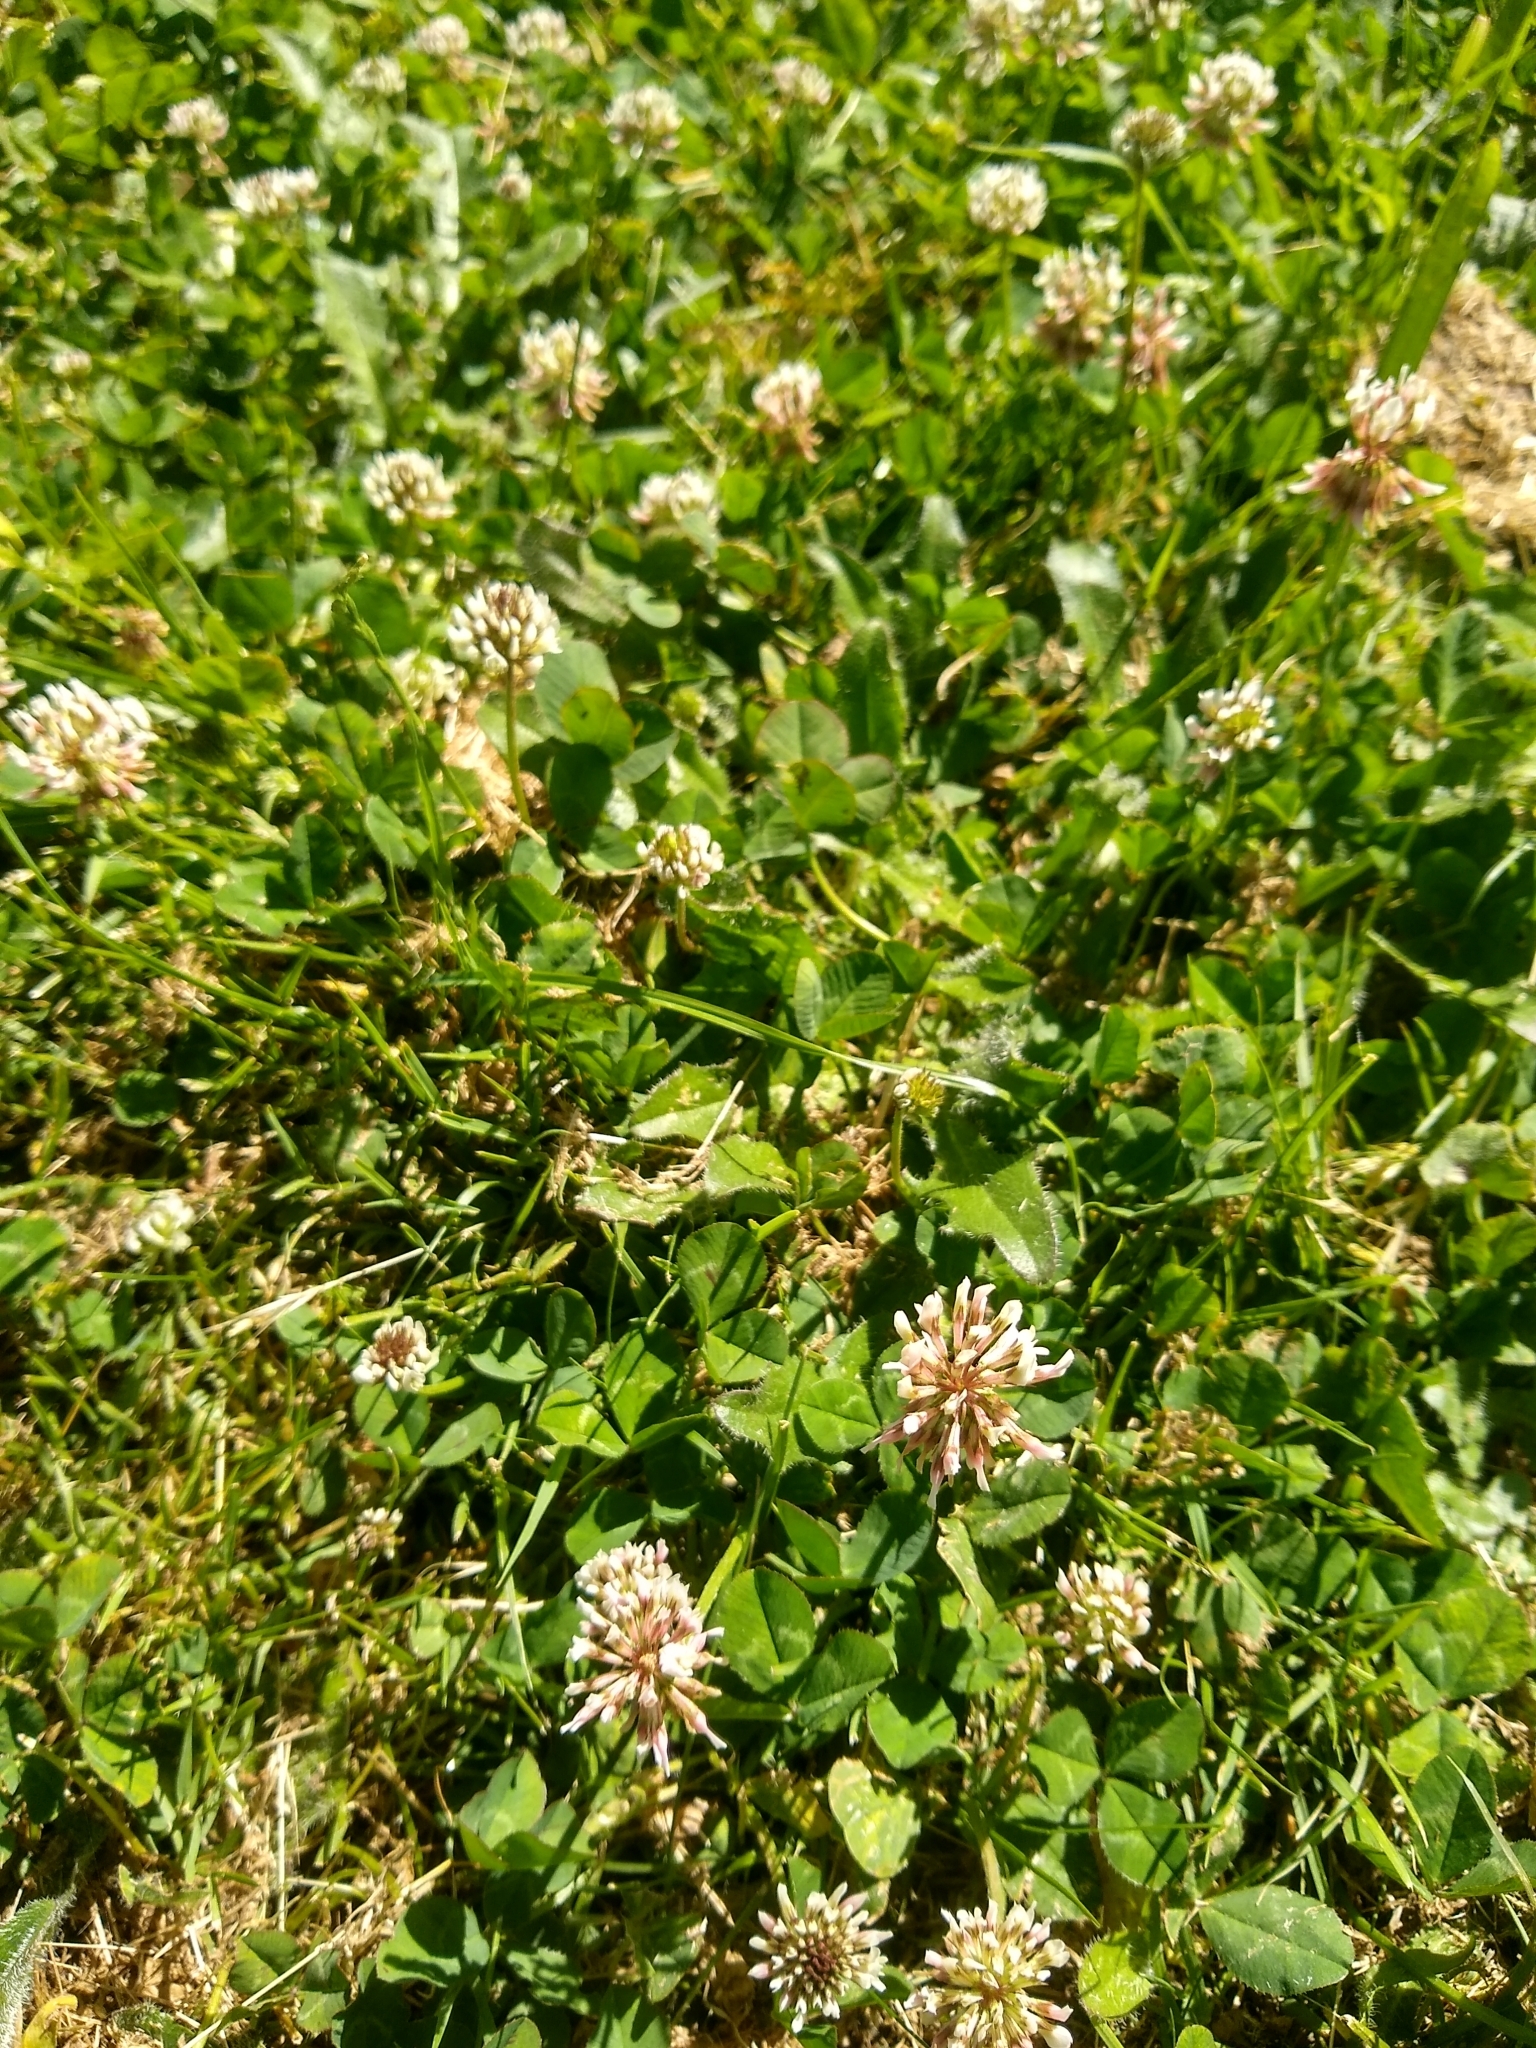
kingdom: Plantae
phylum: Tracheophyta
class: Magnoliopsida
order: Fabales
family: Fabaceae
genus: Trifolium
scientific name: Trifolium repens
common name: White clover
